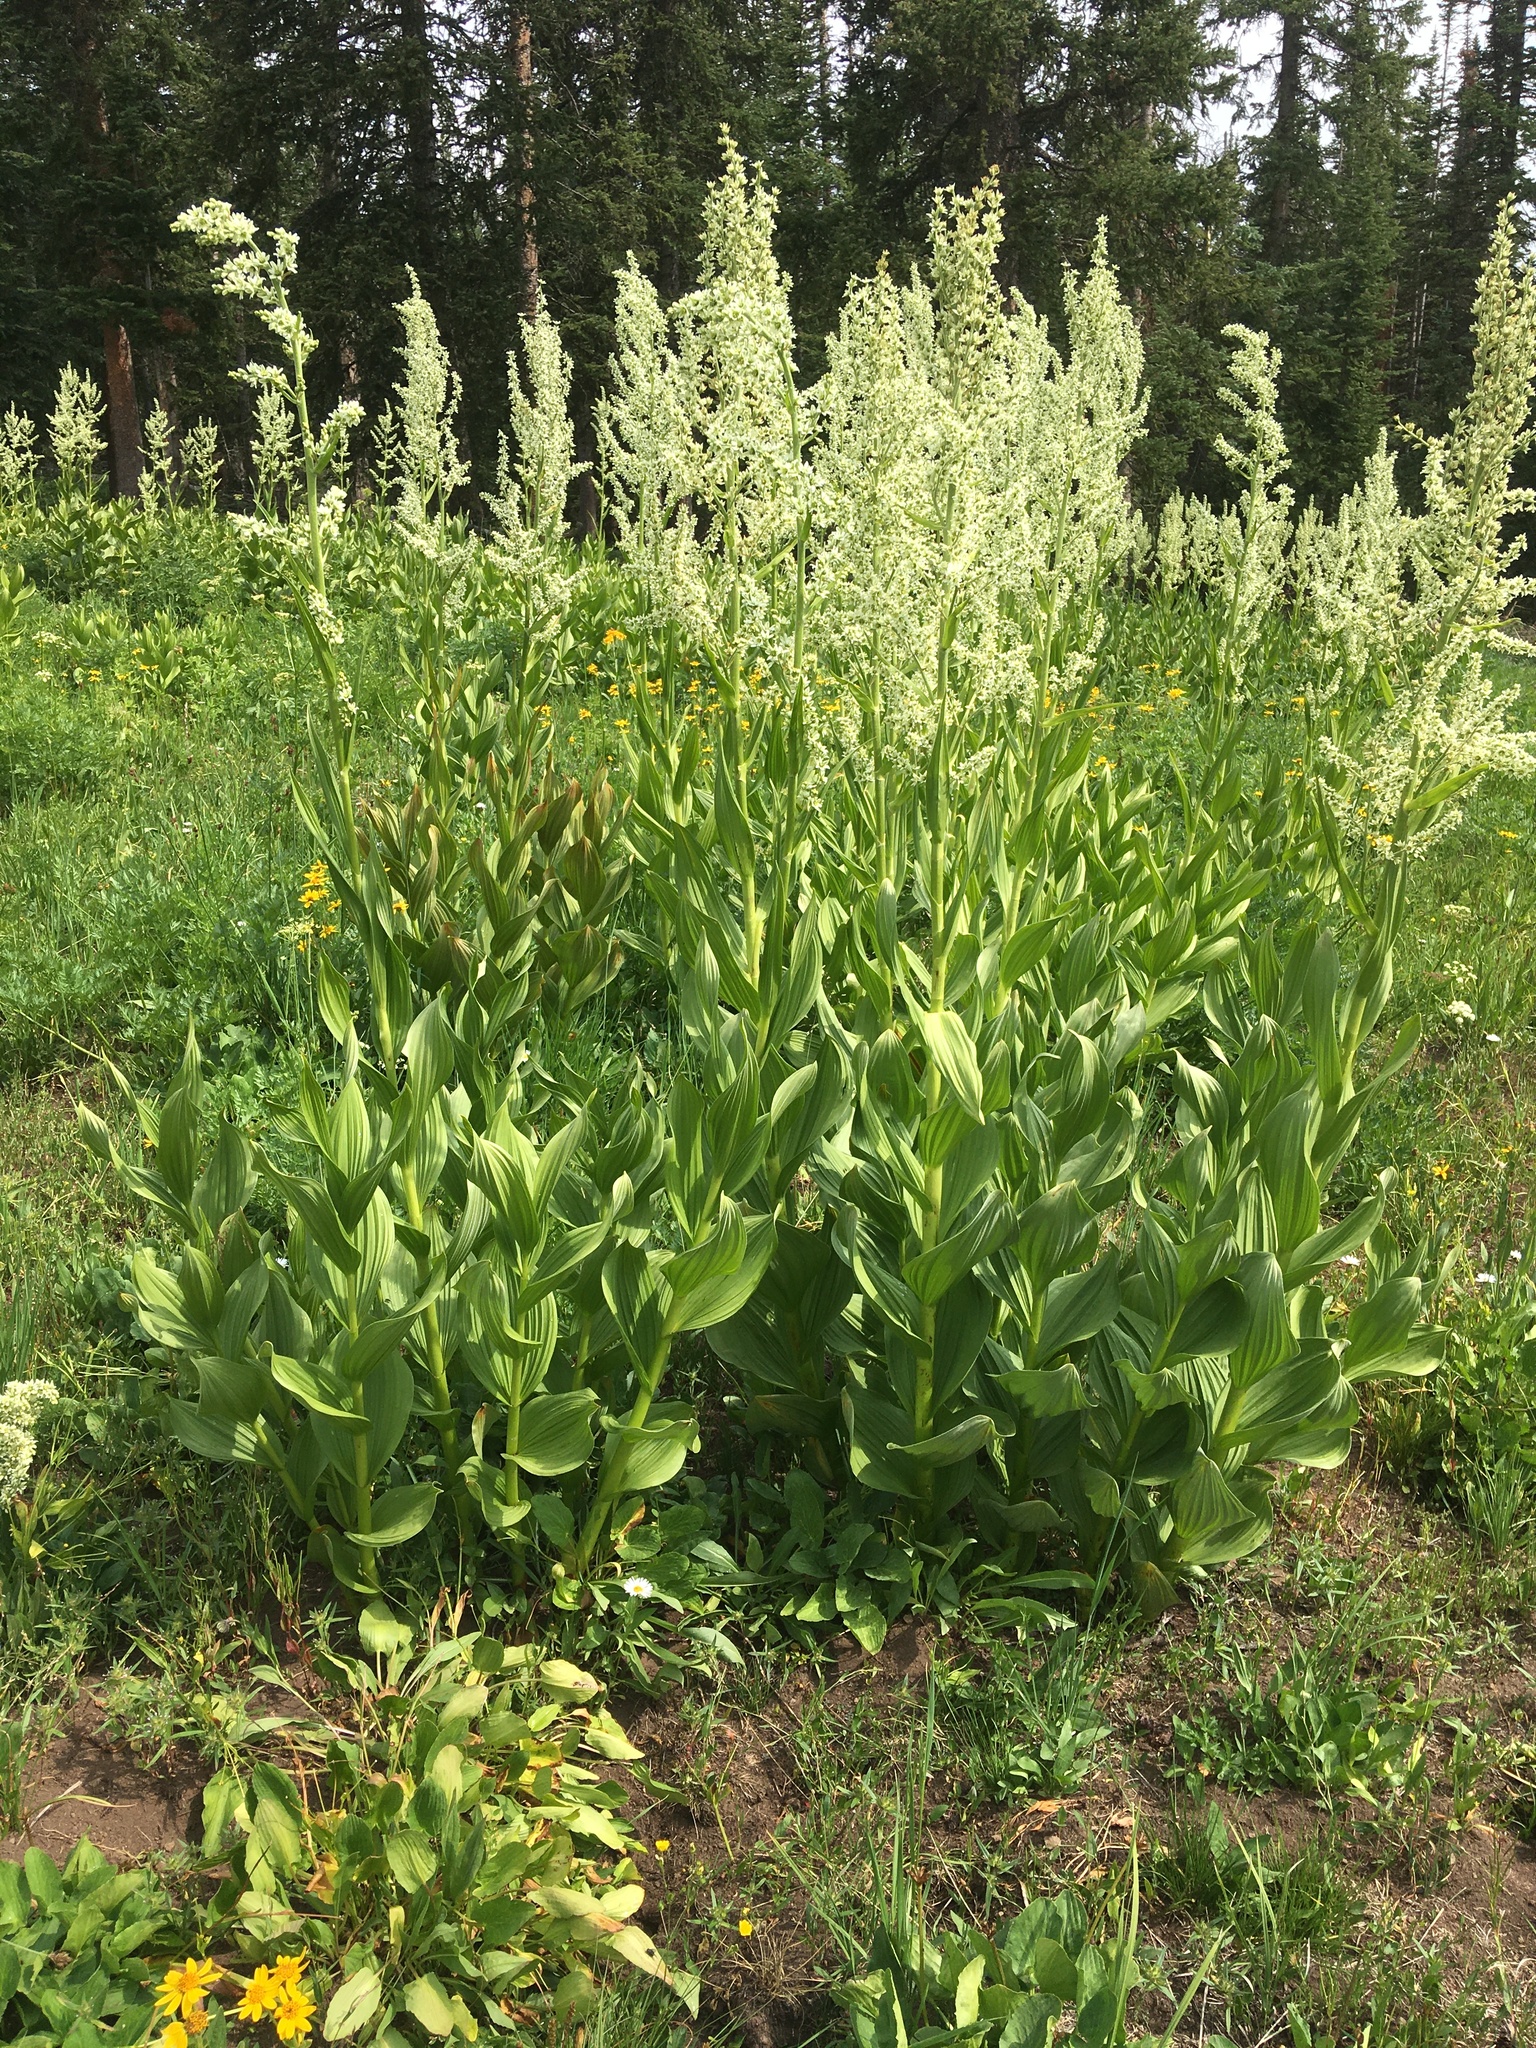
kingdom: Plantae
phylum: Tracheophyta
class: Liliopsida
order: Liliales
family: Melanthiaceae
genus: Veratrum
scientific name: Veratrum californicum
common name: California veratrum
